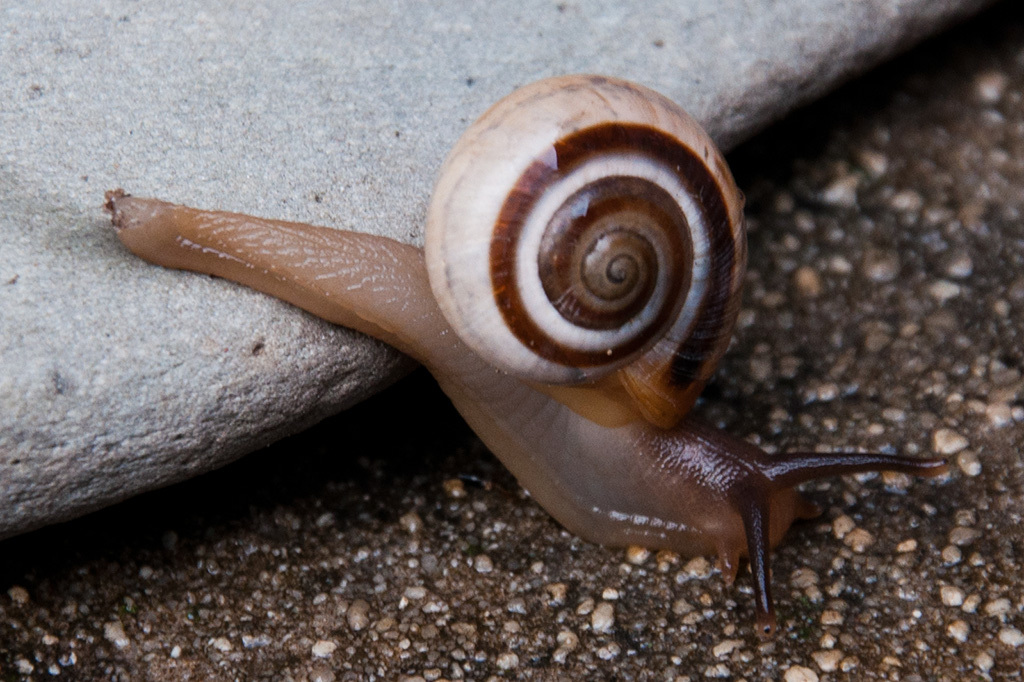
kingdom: Animalia
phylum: Mollusca
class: Gastropoda
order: Stylommatophora
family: Charopidae
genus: Phortion
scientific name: Phortion menkeanum
